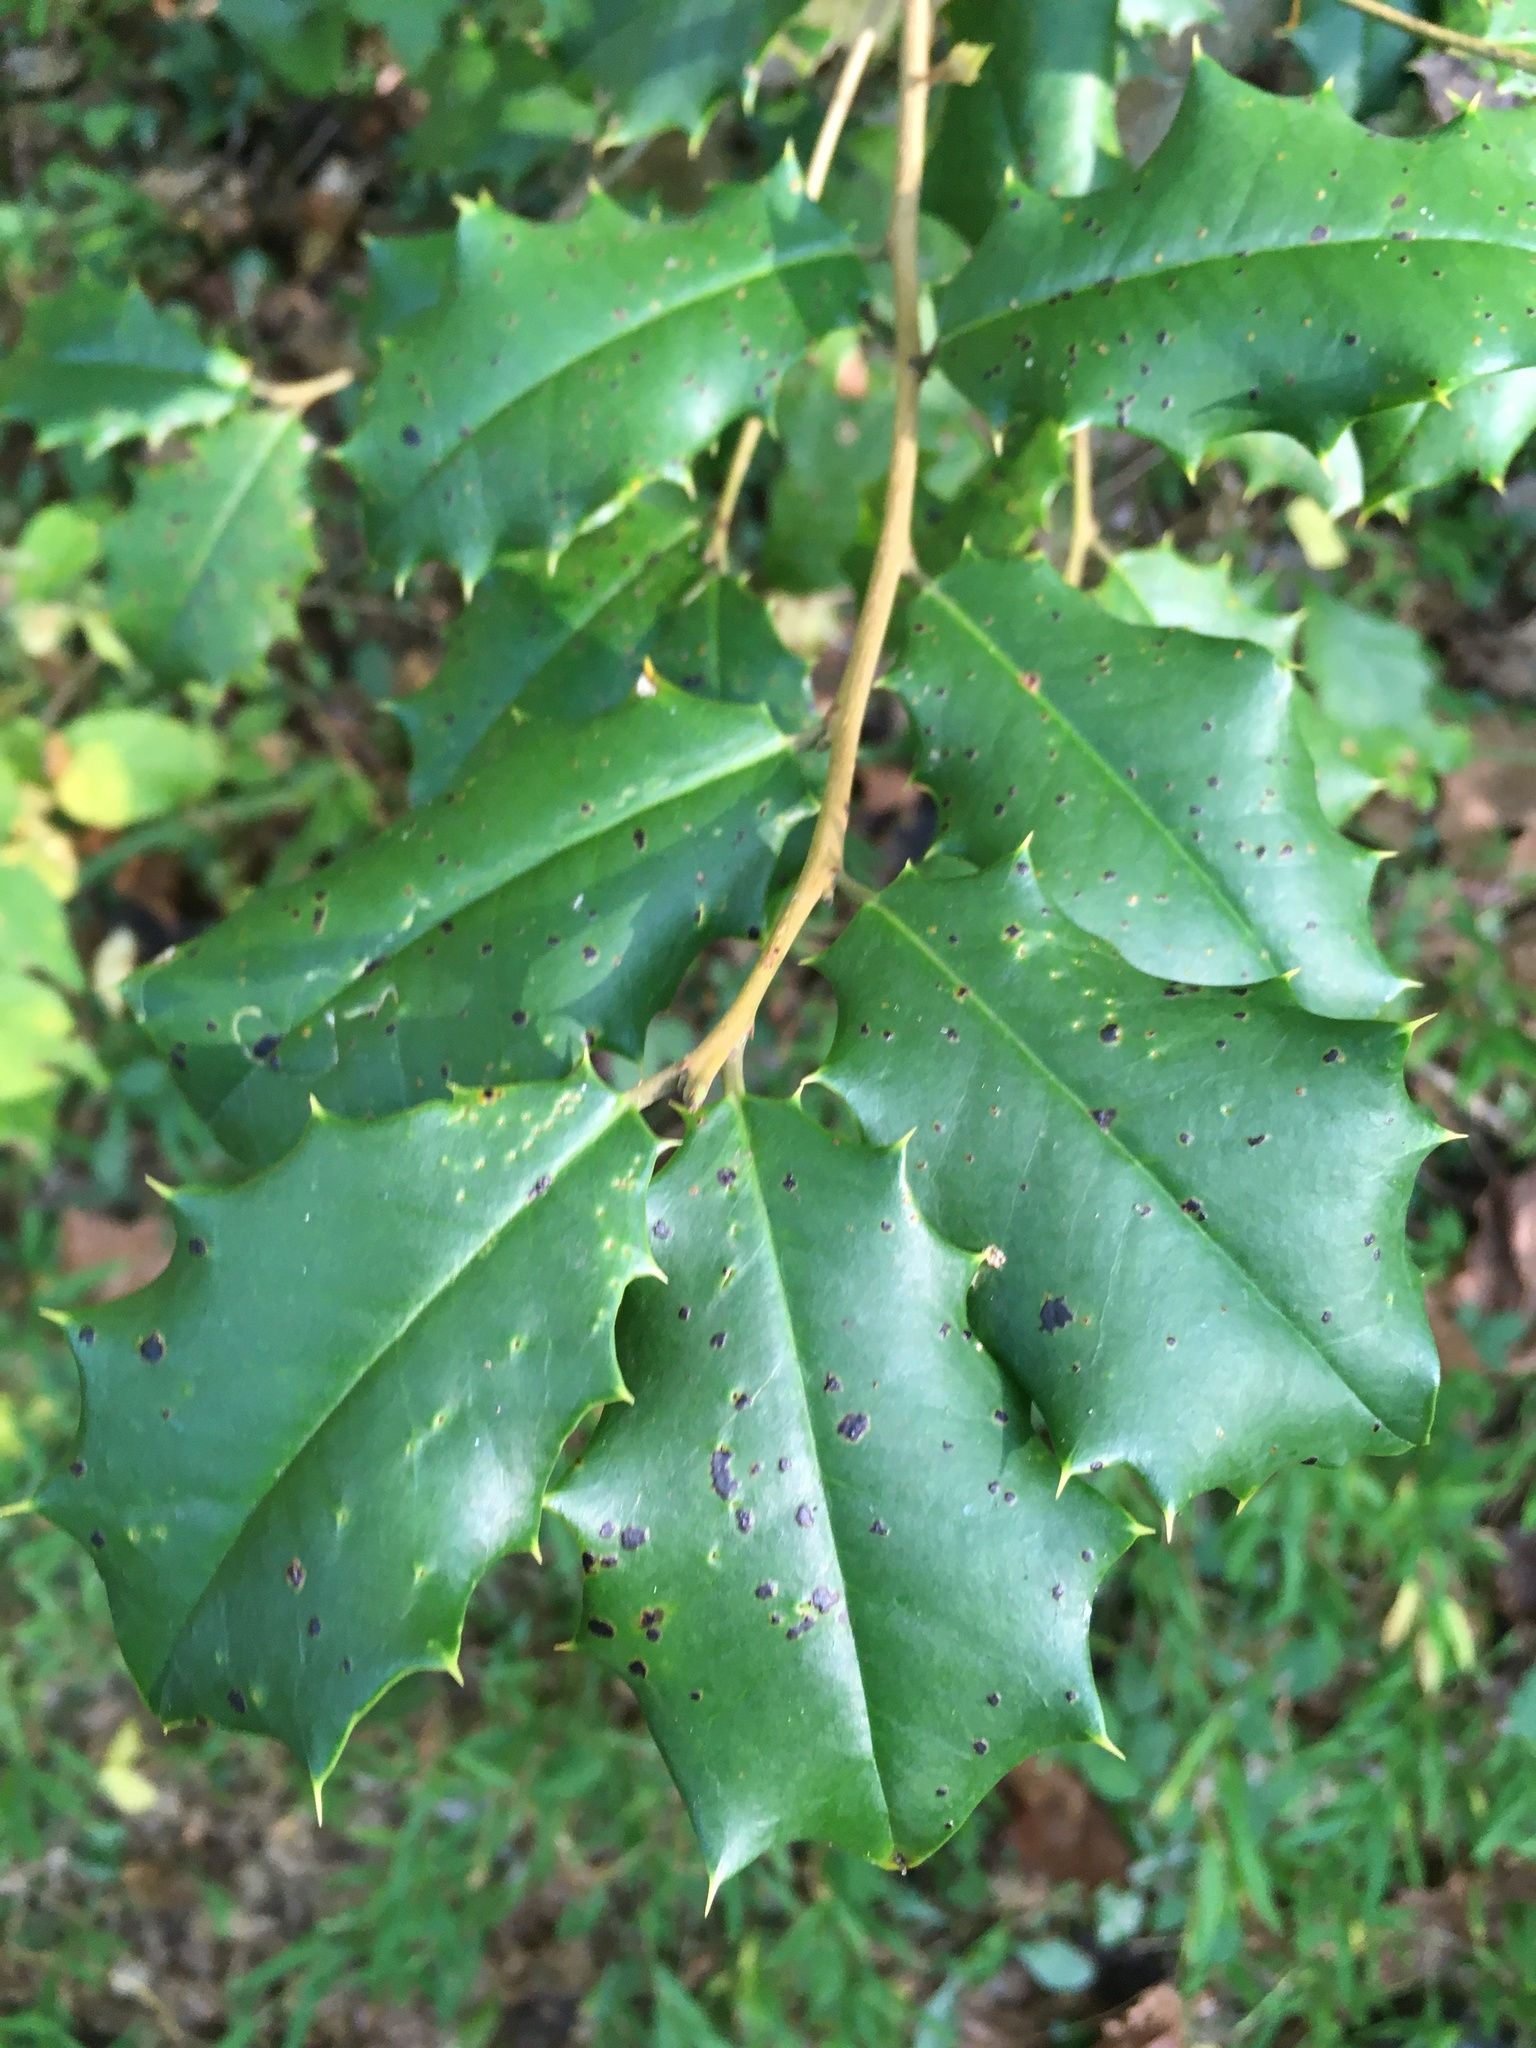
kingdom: Plantae
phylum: Tracheophyta
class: Magnoliopsida
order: Aquifoliales
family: Aquifoliaceae
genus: Ilex
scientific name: Ilex opaca
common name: American holly
